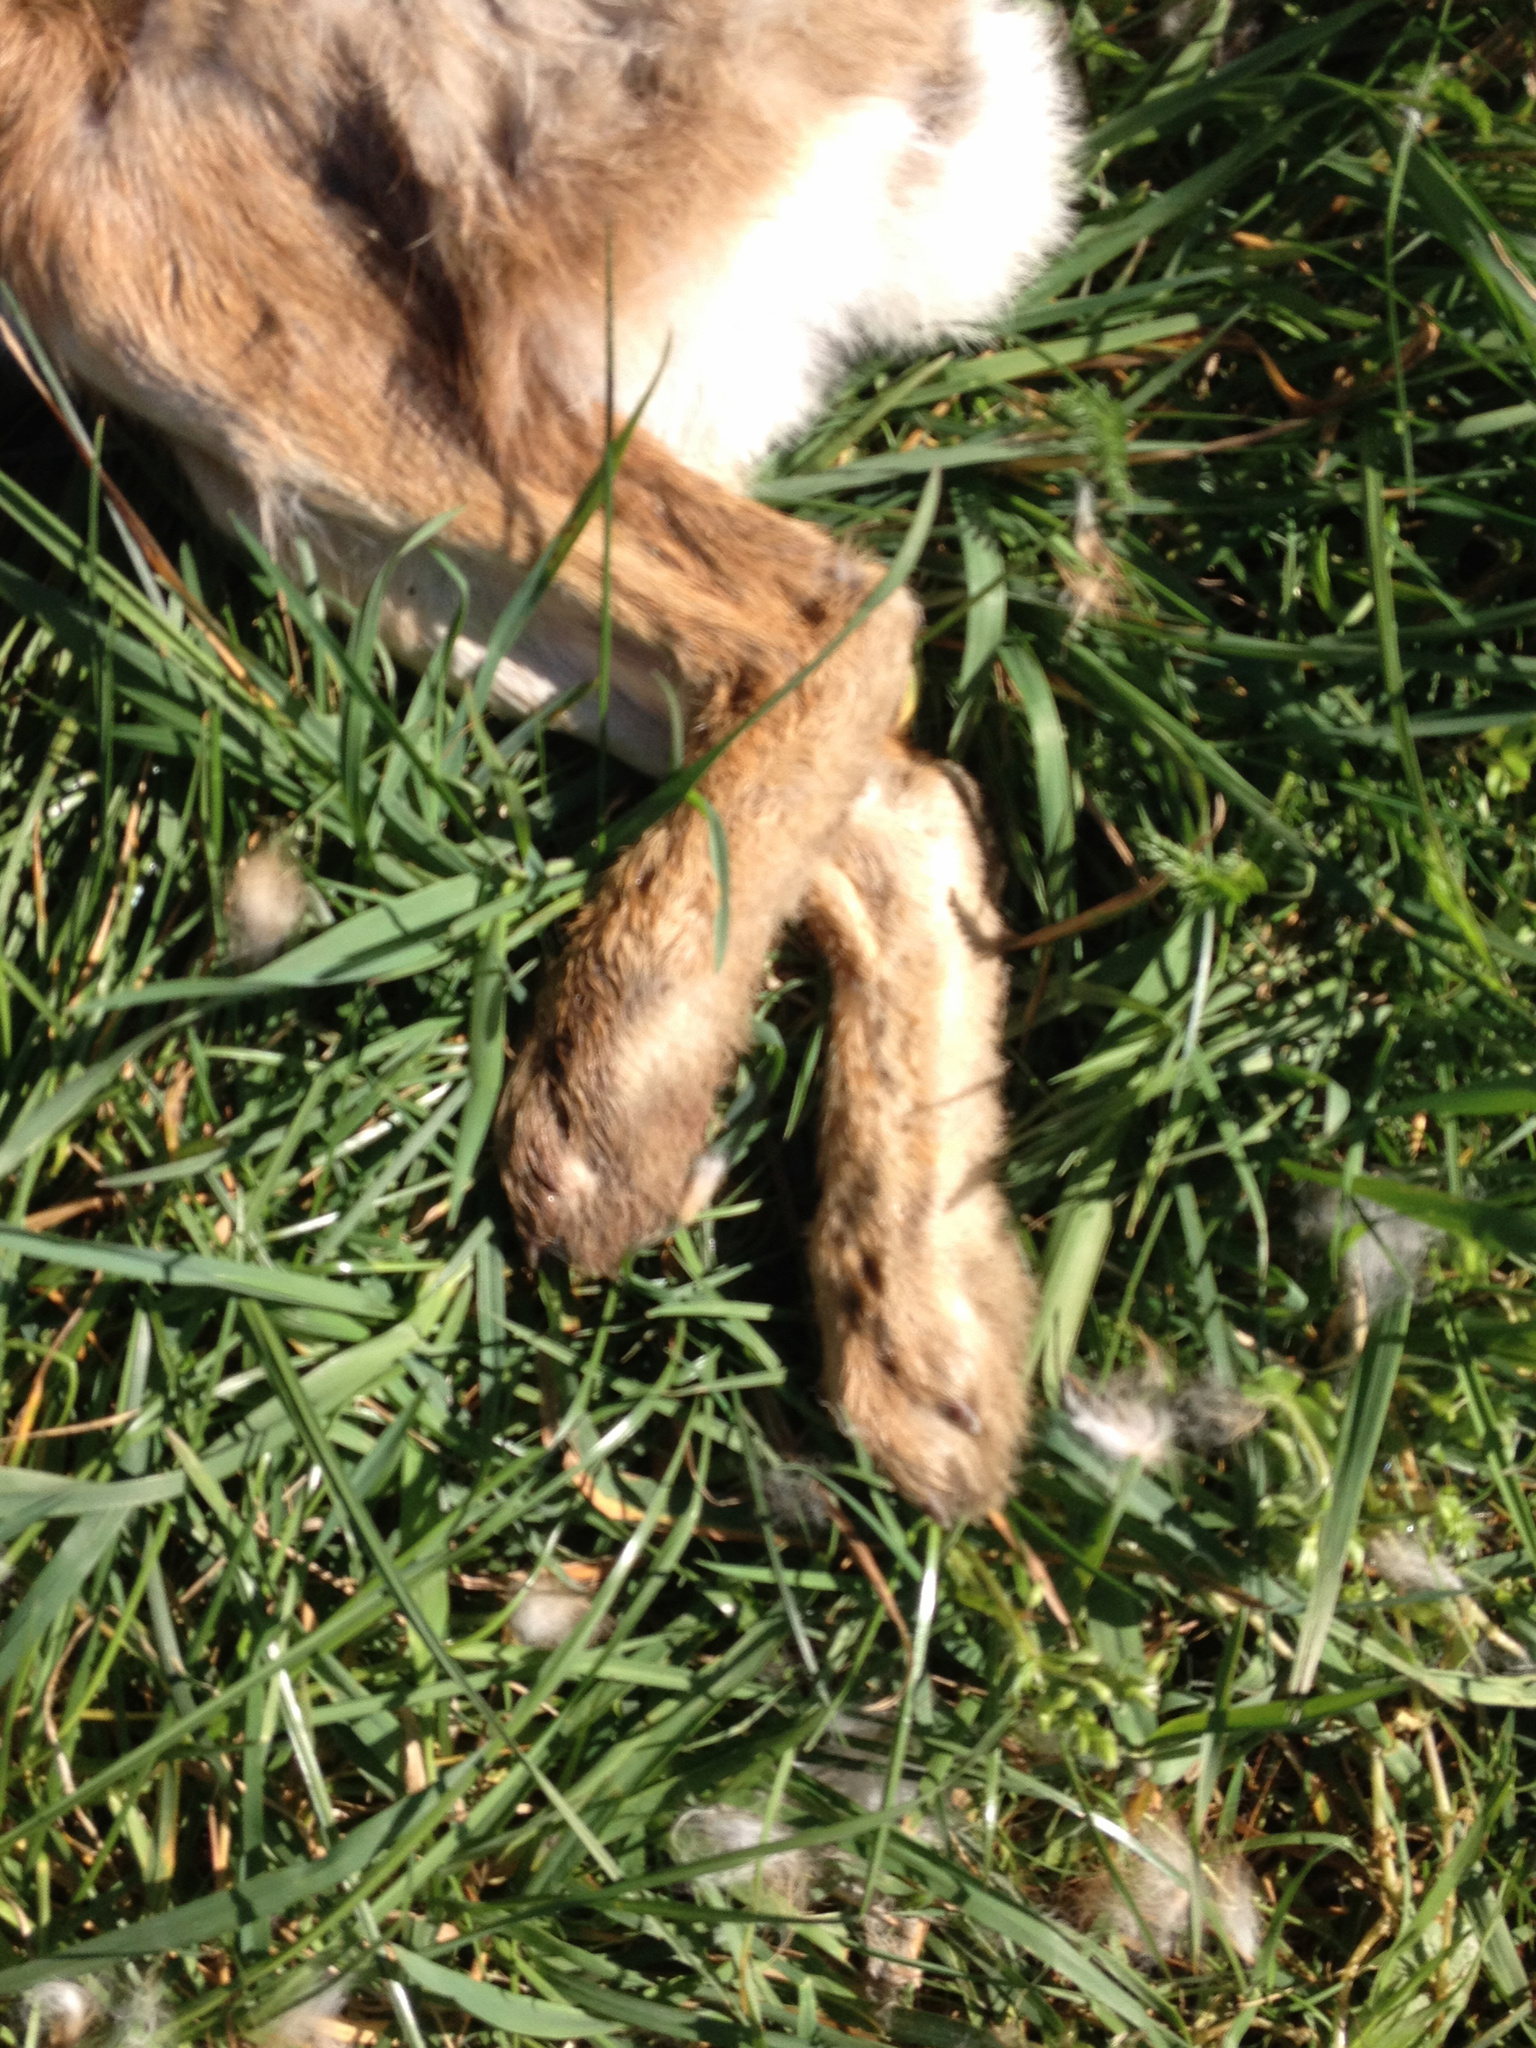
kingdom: Animalia
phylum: Chordata
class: Mammalia
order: Lagomorpha
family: Leporidae
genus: Lepus
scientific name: Lepus europaeus
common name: European hare
